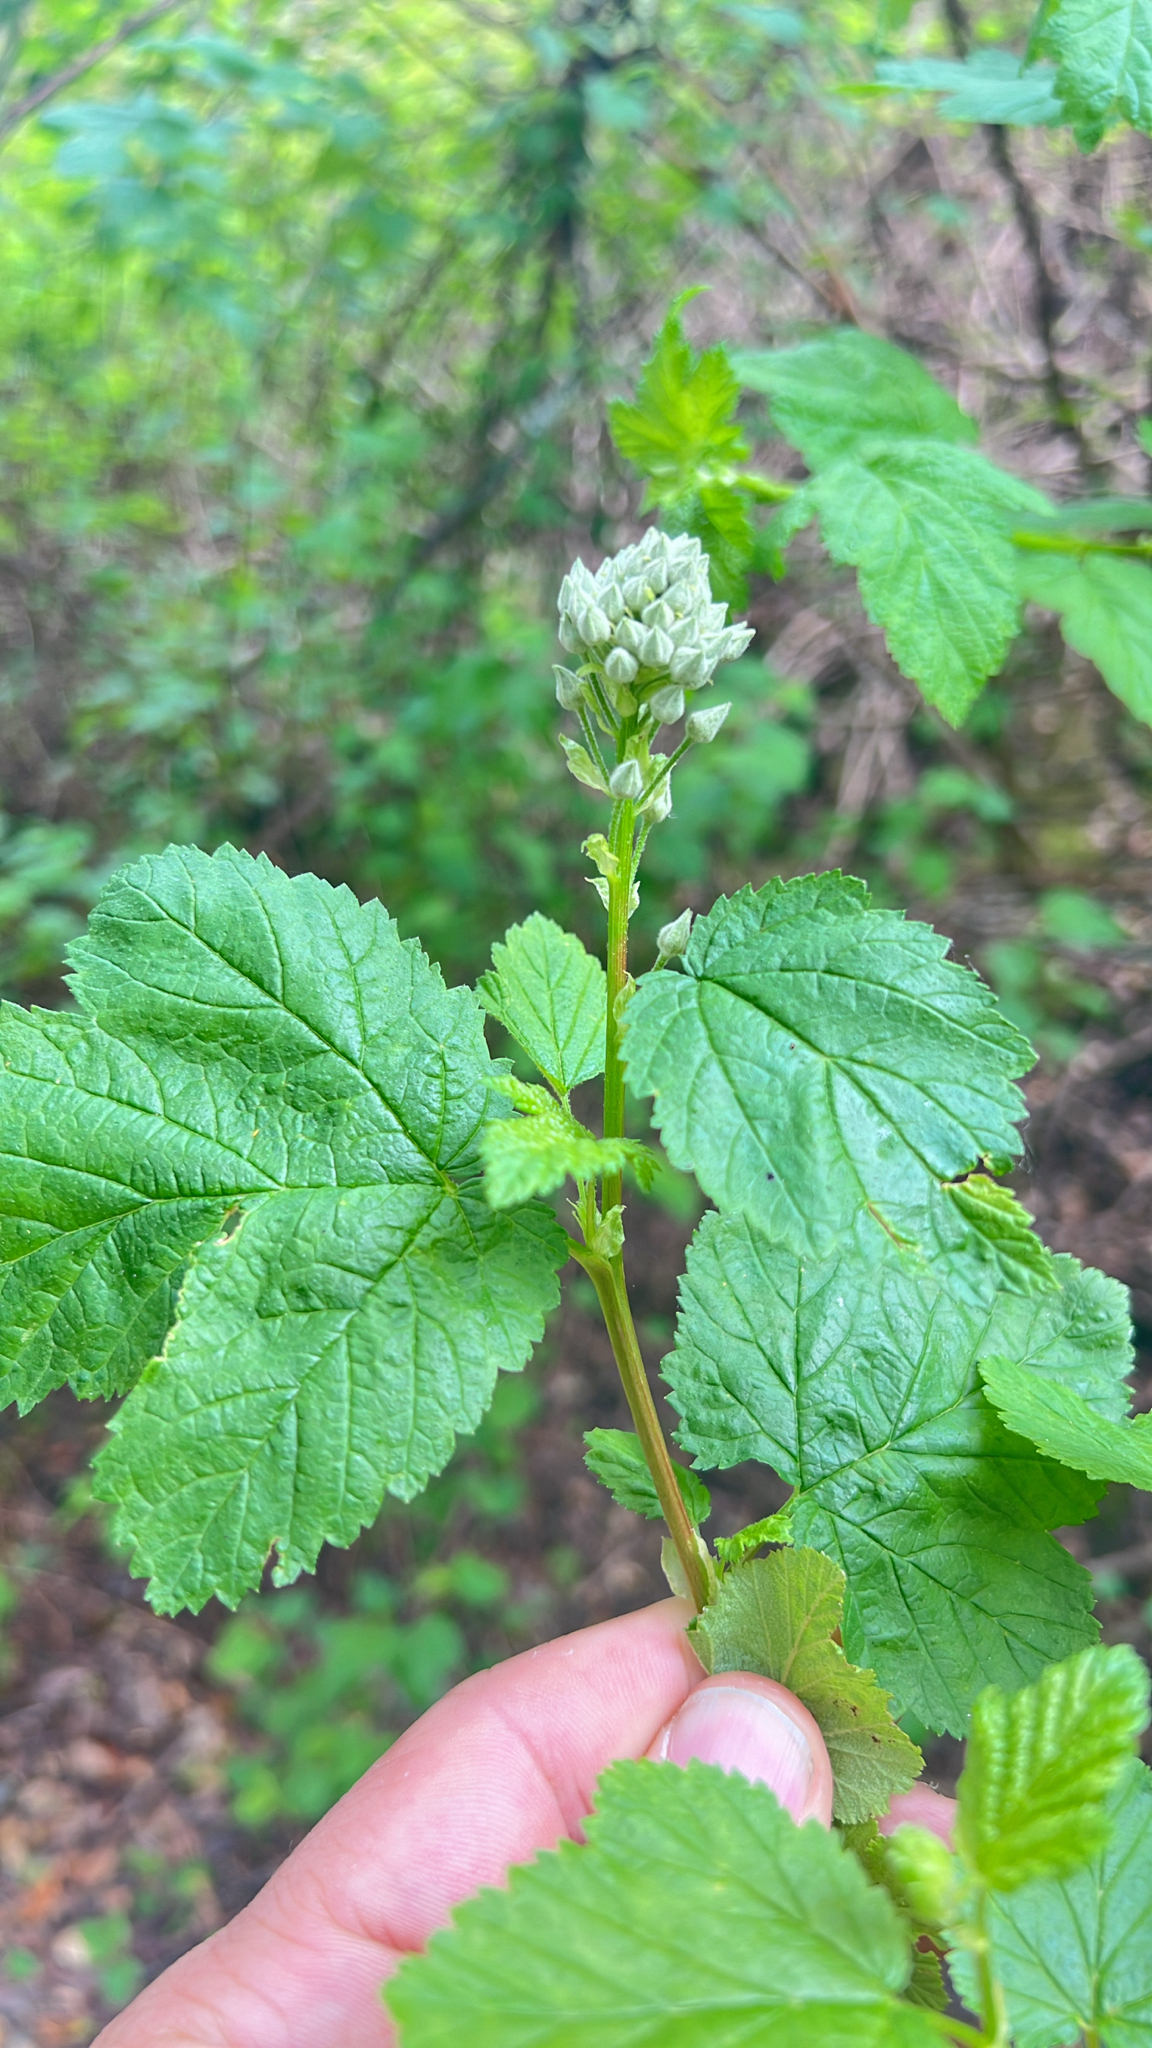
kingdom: Plantae
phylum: Tracheophyta
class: Magnoliopsida
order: Rosales
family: Rosaceae
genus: Physocarpus
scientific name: Physocarpus capitatus
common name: Pacific ninebark
